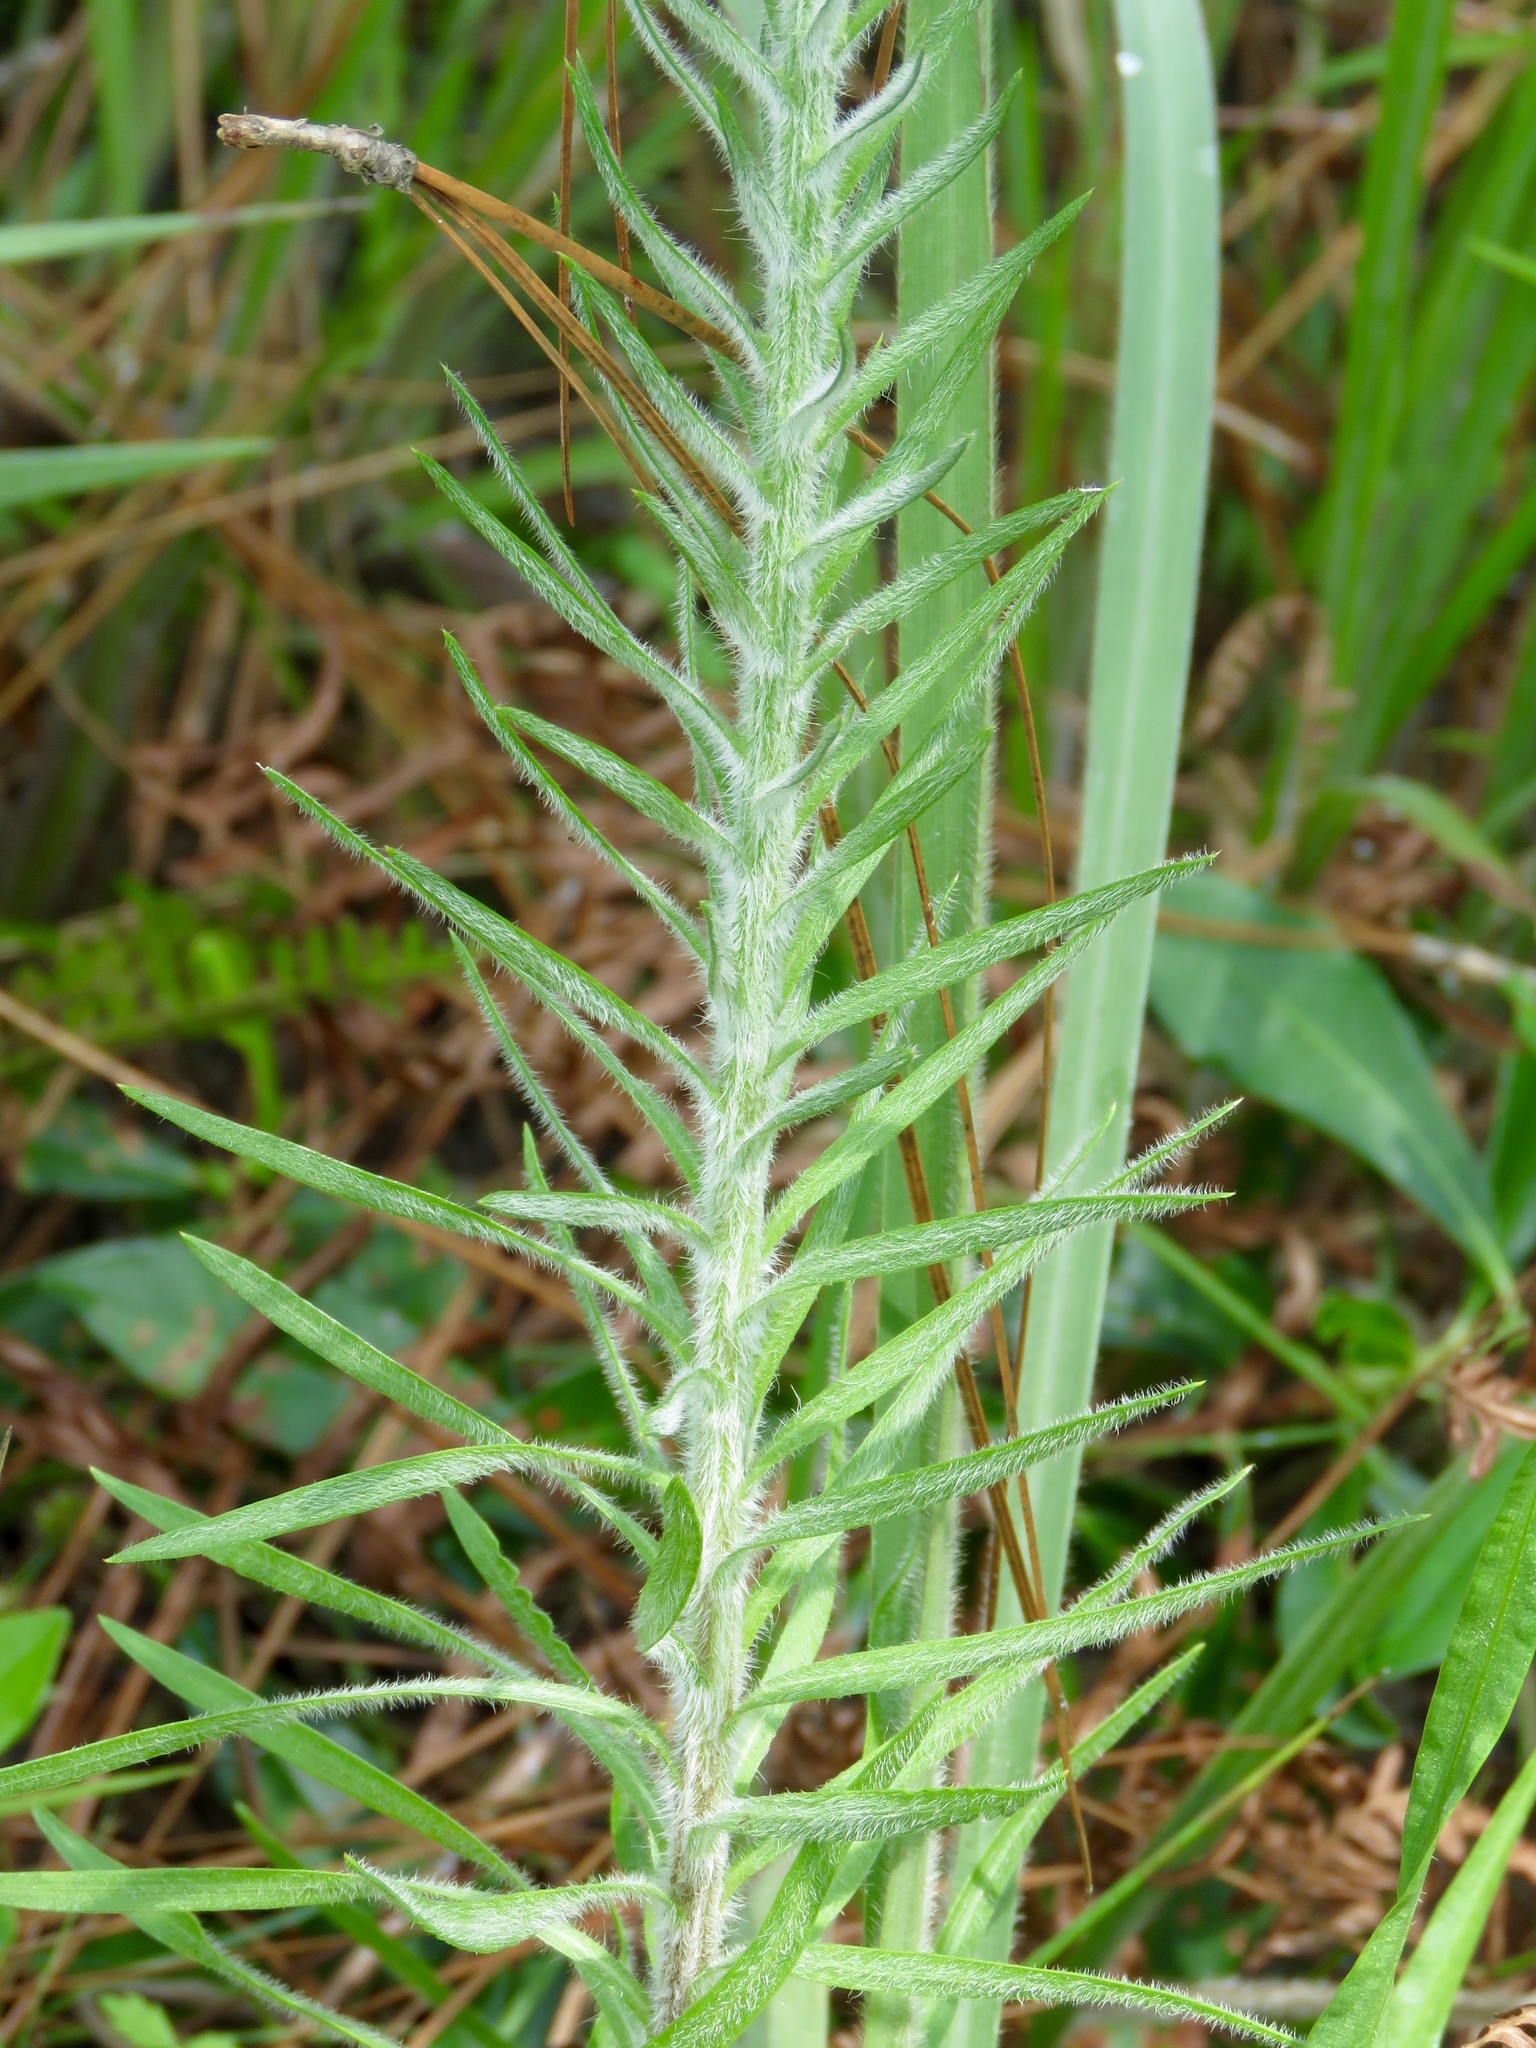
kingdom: Plantae
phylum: Tracheophyta
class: Magnoliopsida
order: Asterales
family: Asteraceae
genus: Liatris
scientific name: Liatris pycnostachya
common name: Cattail gayfeather
